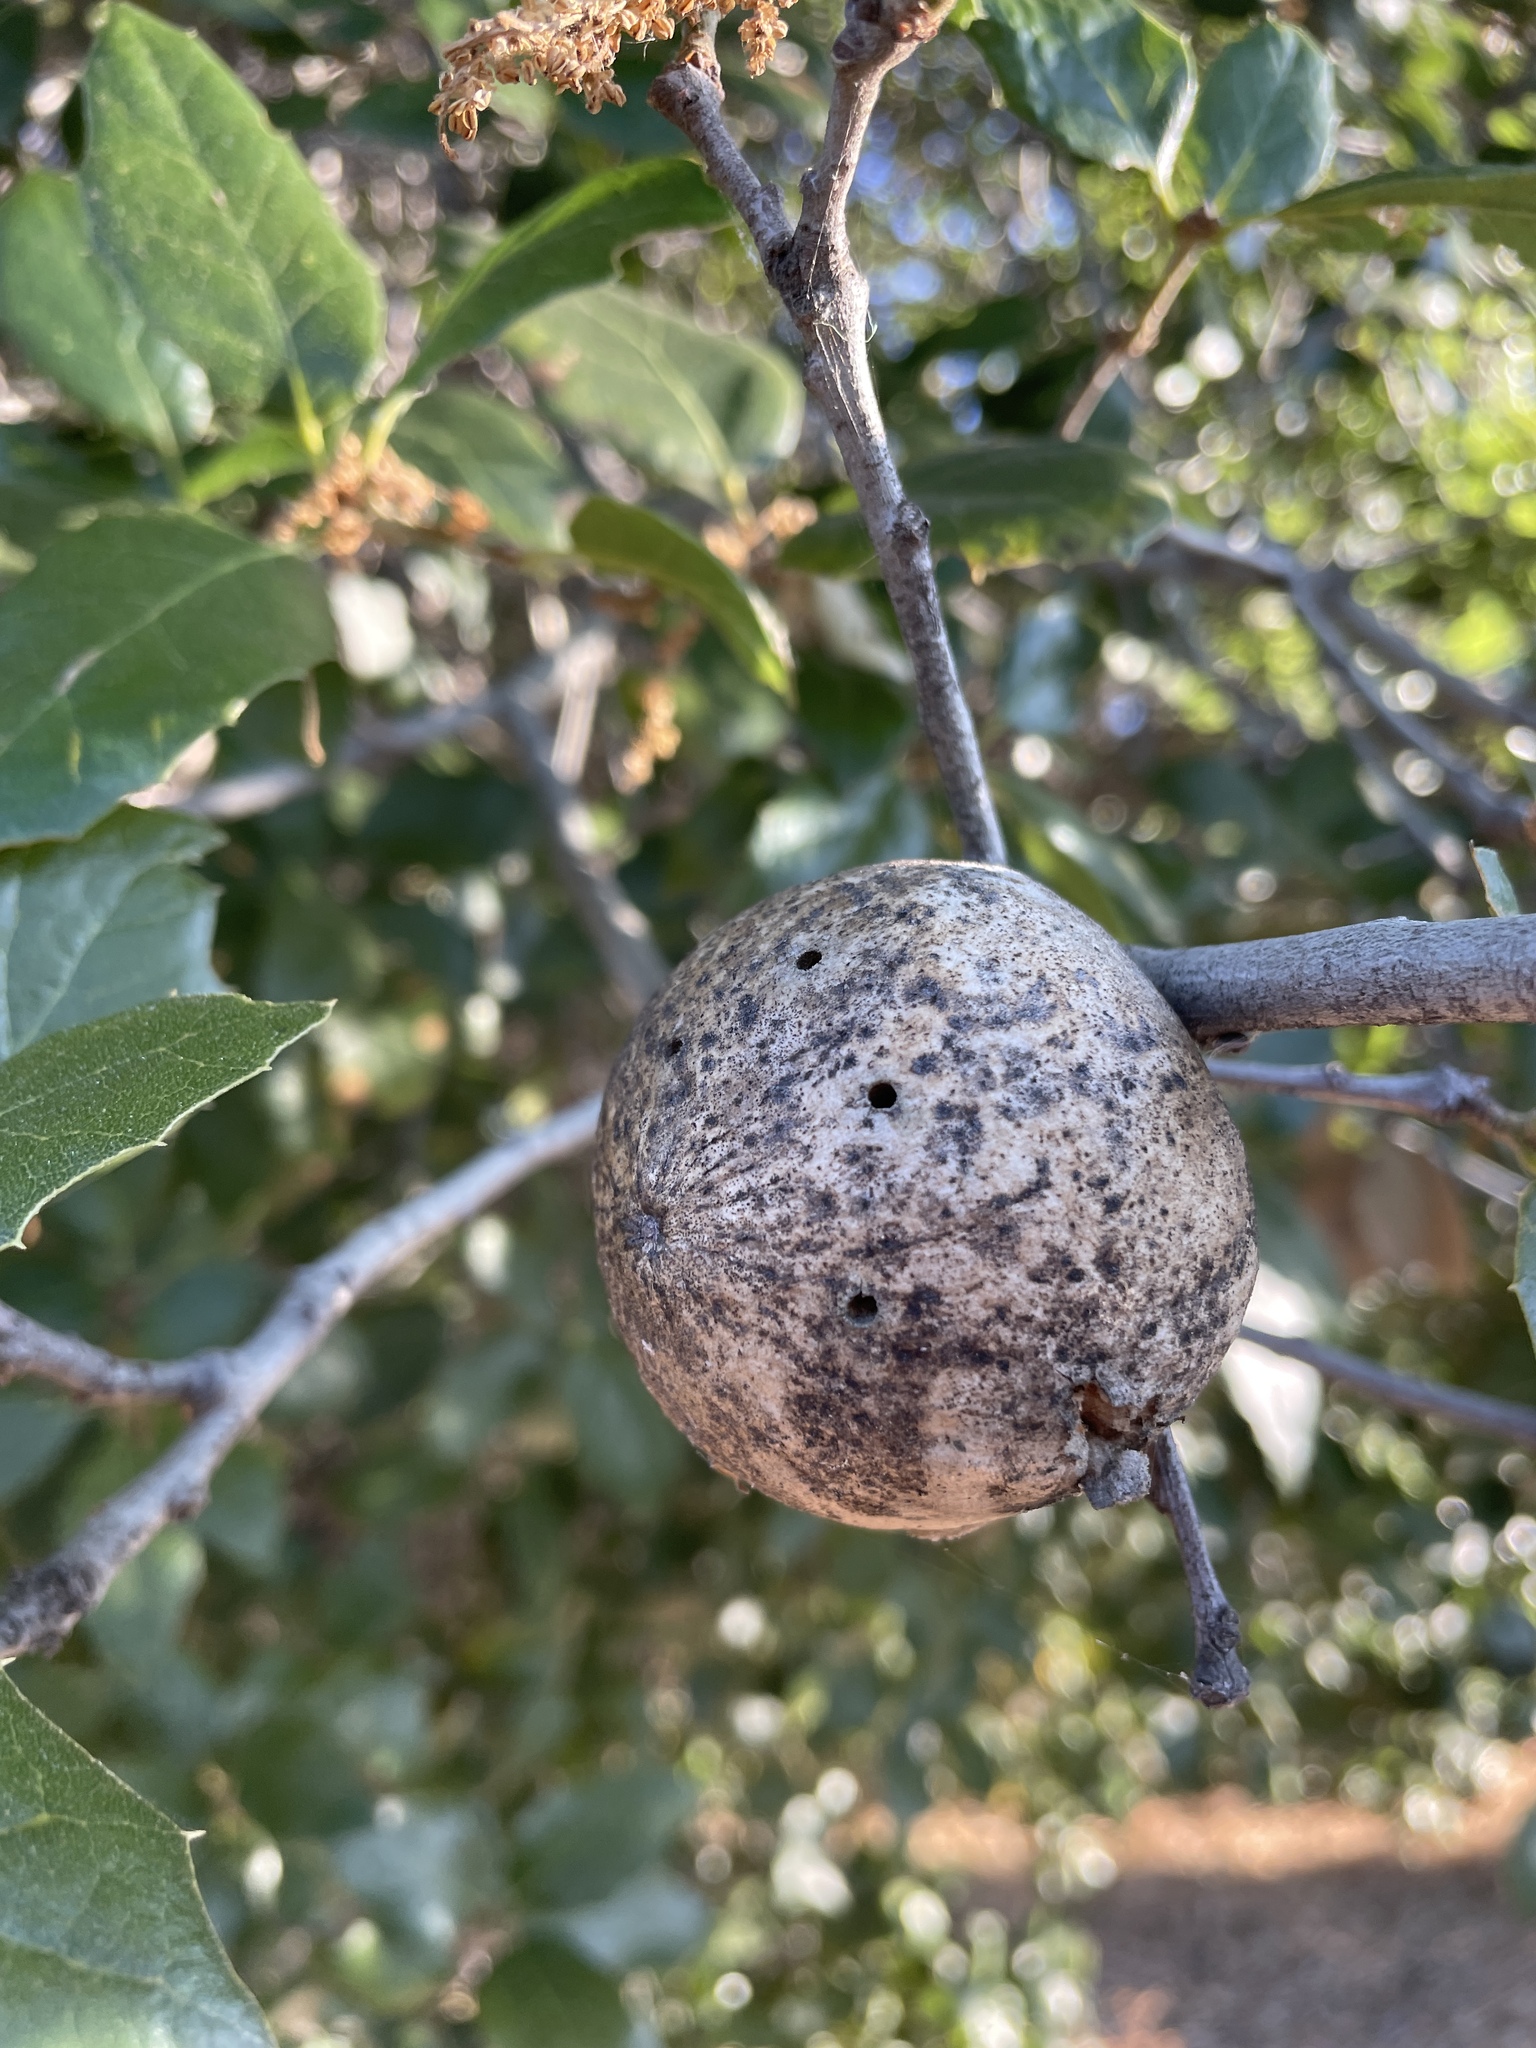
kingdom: Animalia
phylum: Arthropoda
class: Insecta
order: Hymenoptera
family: Cynipidae
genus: Amphibolips
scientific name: Amphibolips quercuspomiformis
